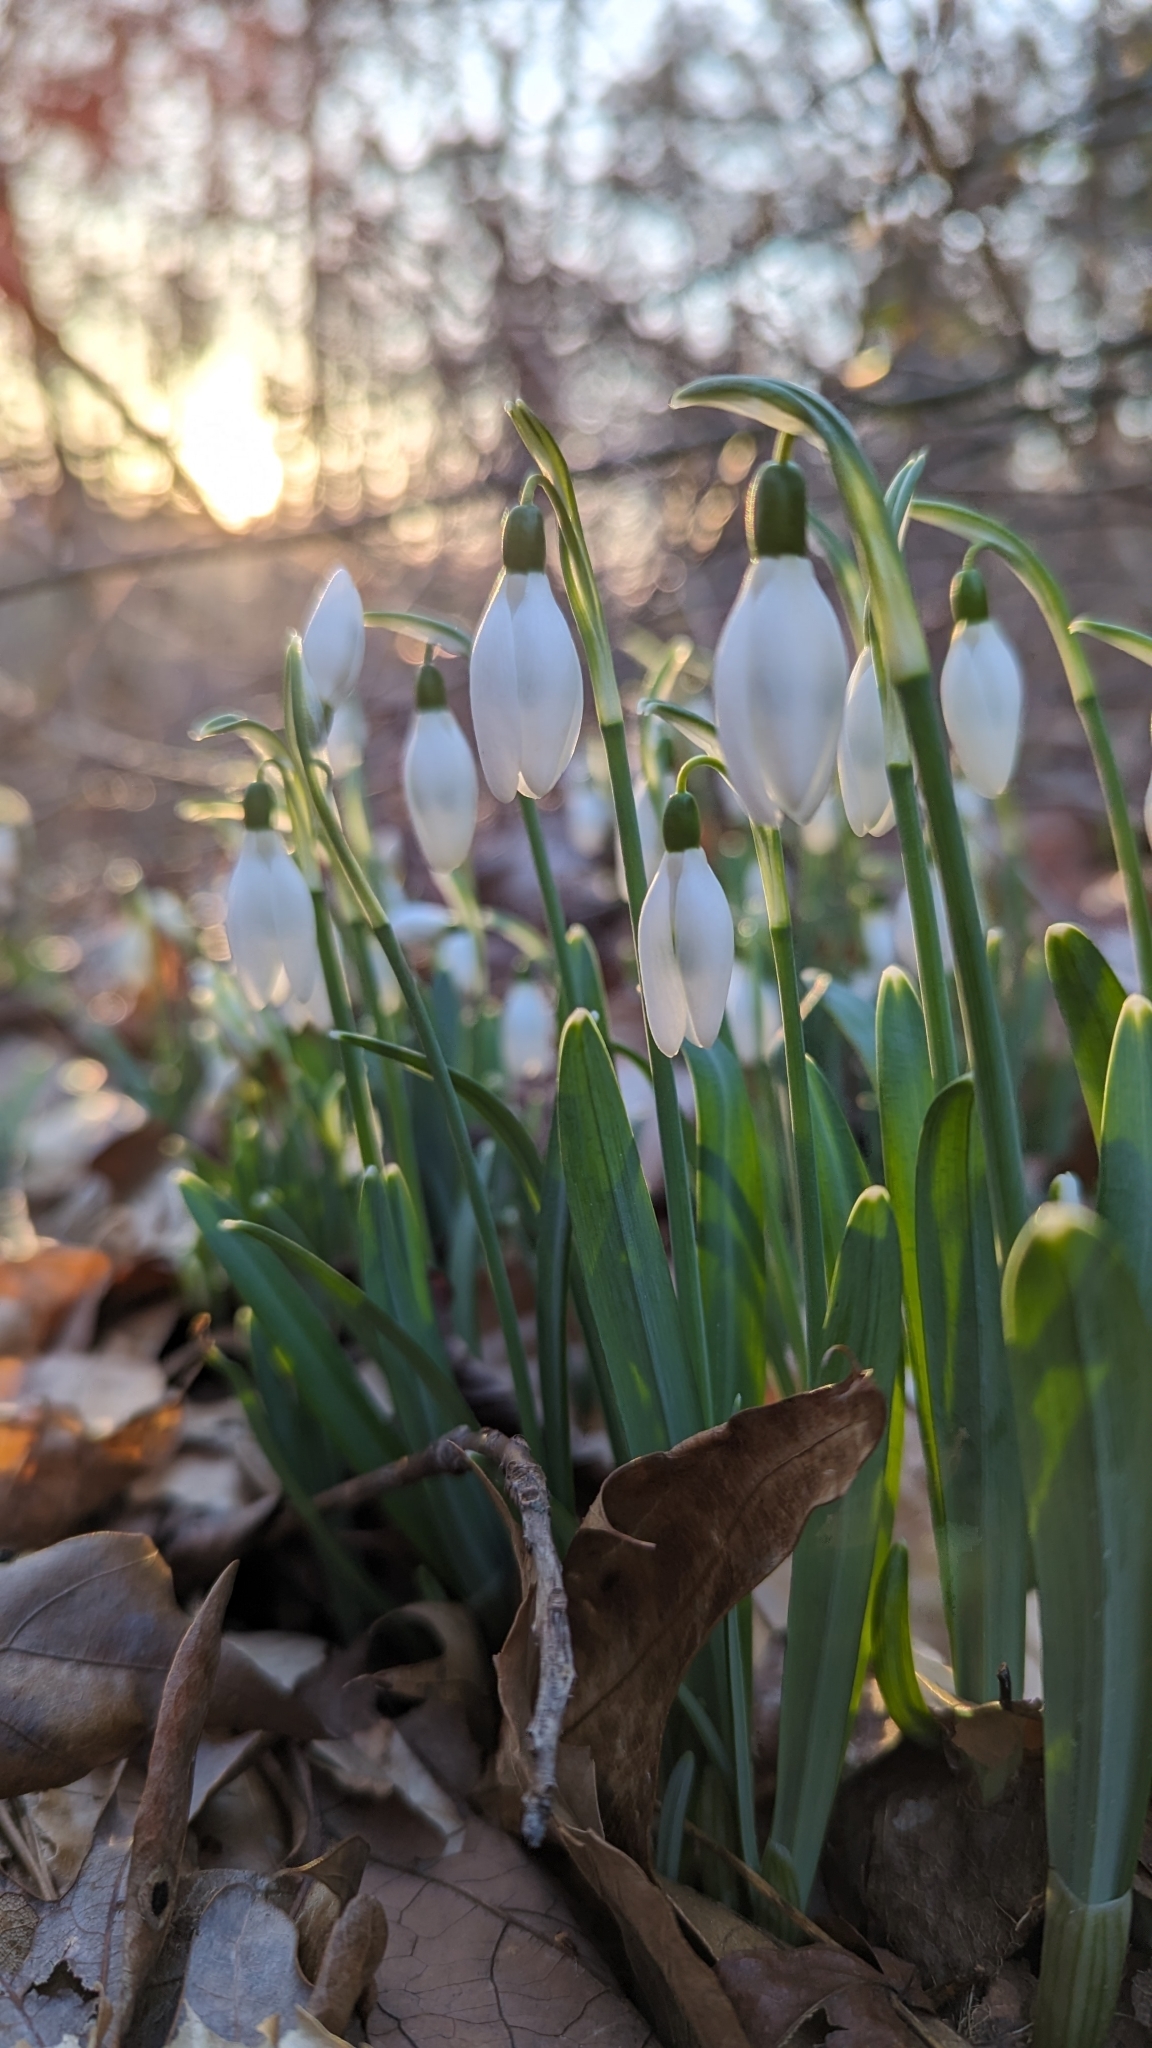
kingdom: Plantae
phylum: Tracheophyta
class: Liliopsida
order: Asparagales
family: Amaryllidaceae
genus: Galanthus
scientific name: Galanthus nivalis
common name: Snowdrop
